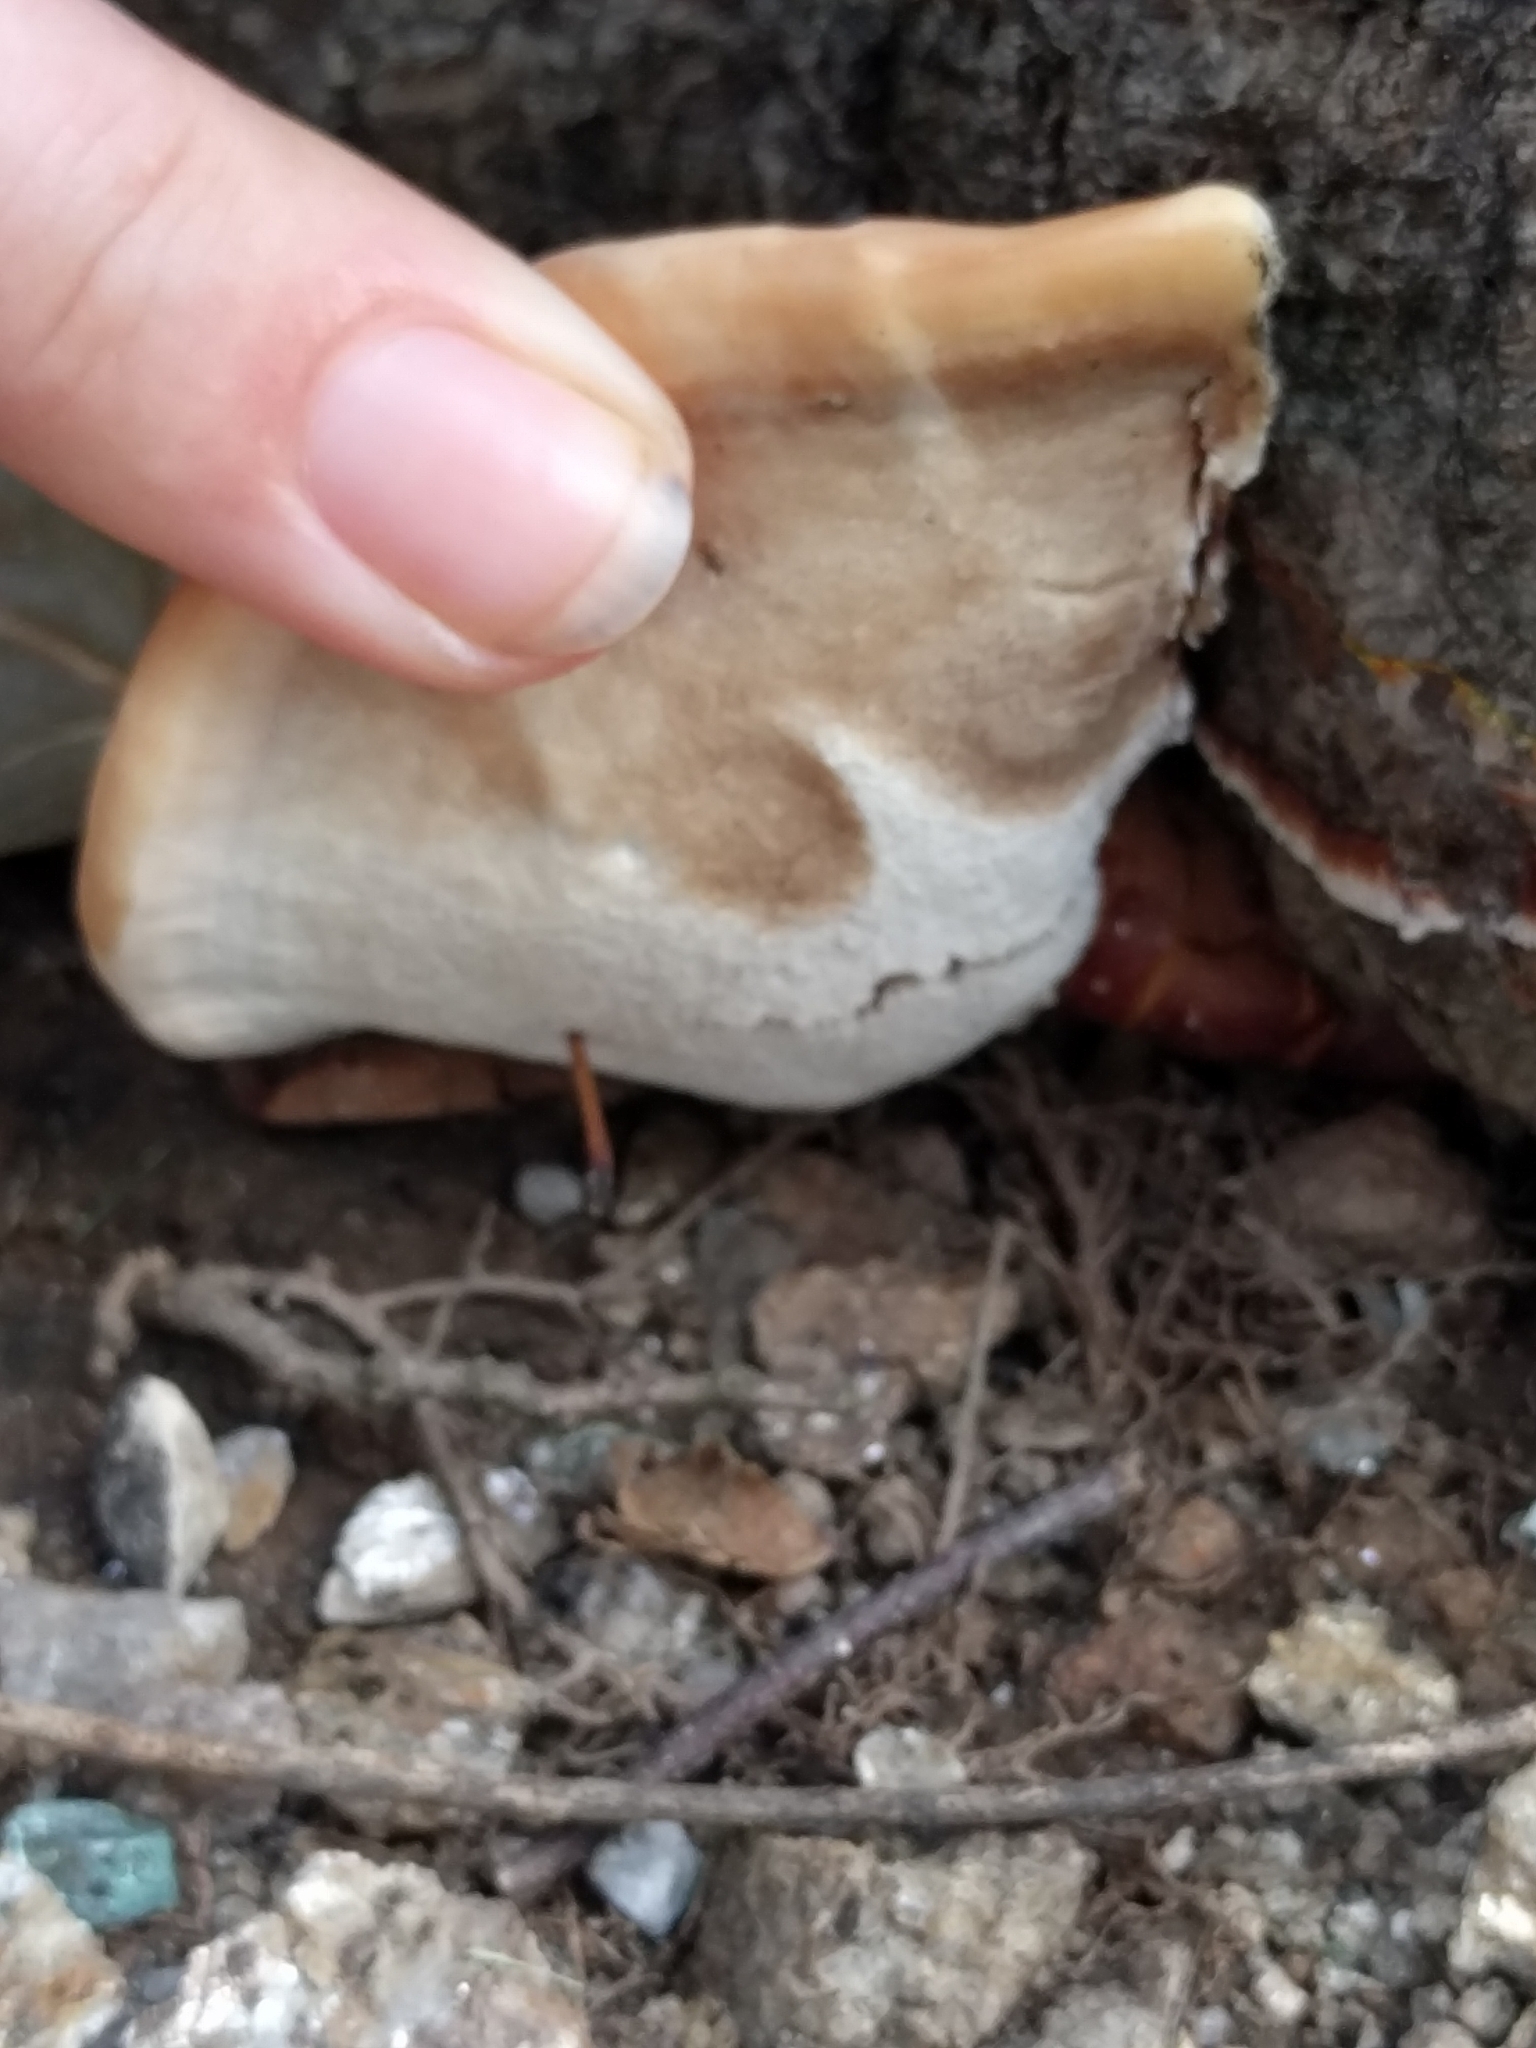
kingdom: Fungi
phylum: Basidiomycota
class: Agaricomycetes
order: Polyporales
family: Polyporaceae
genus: Ganoderma
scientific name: Ganoderma resinaceum
